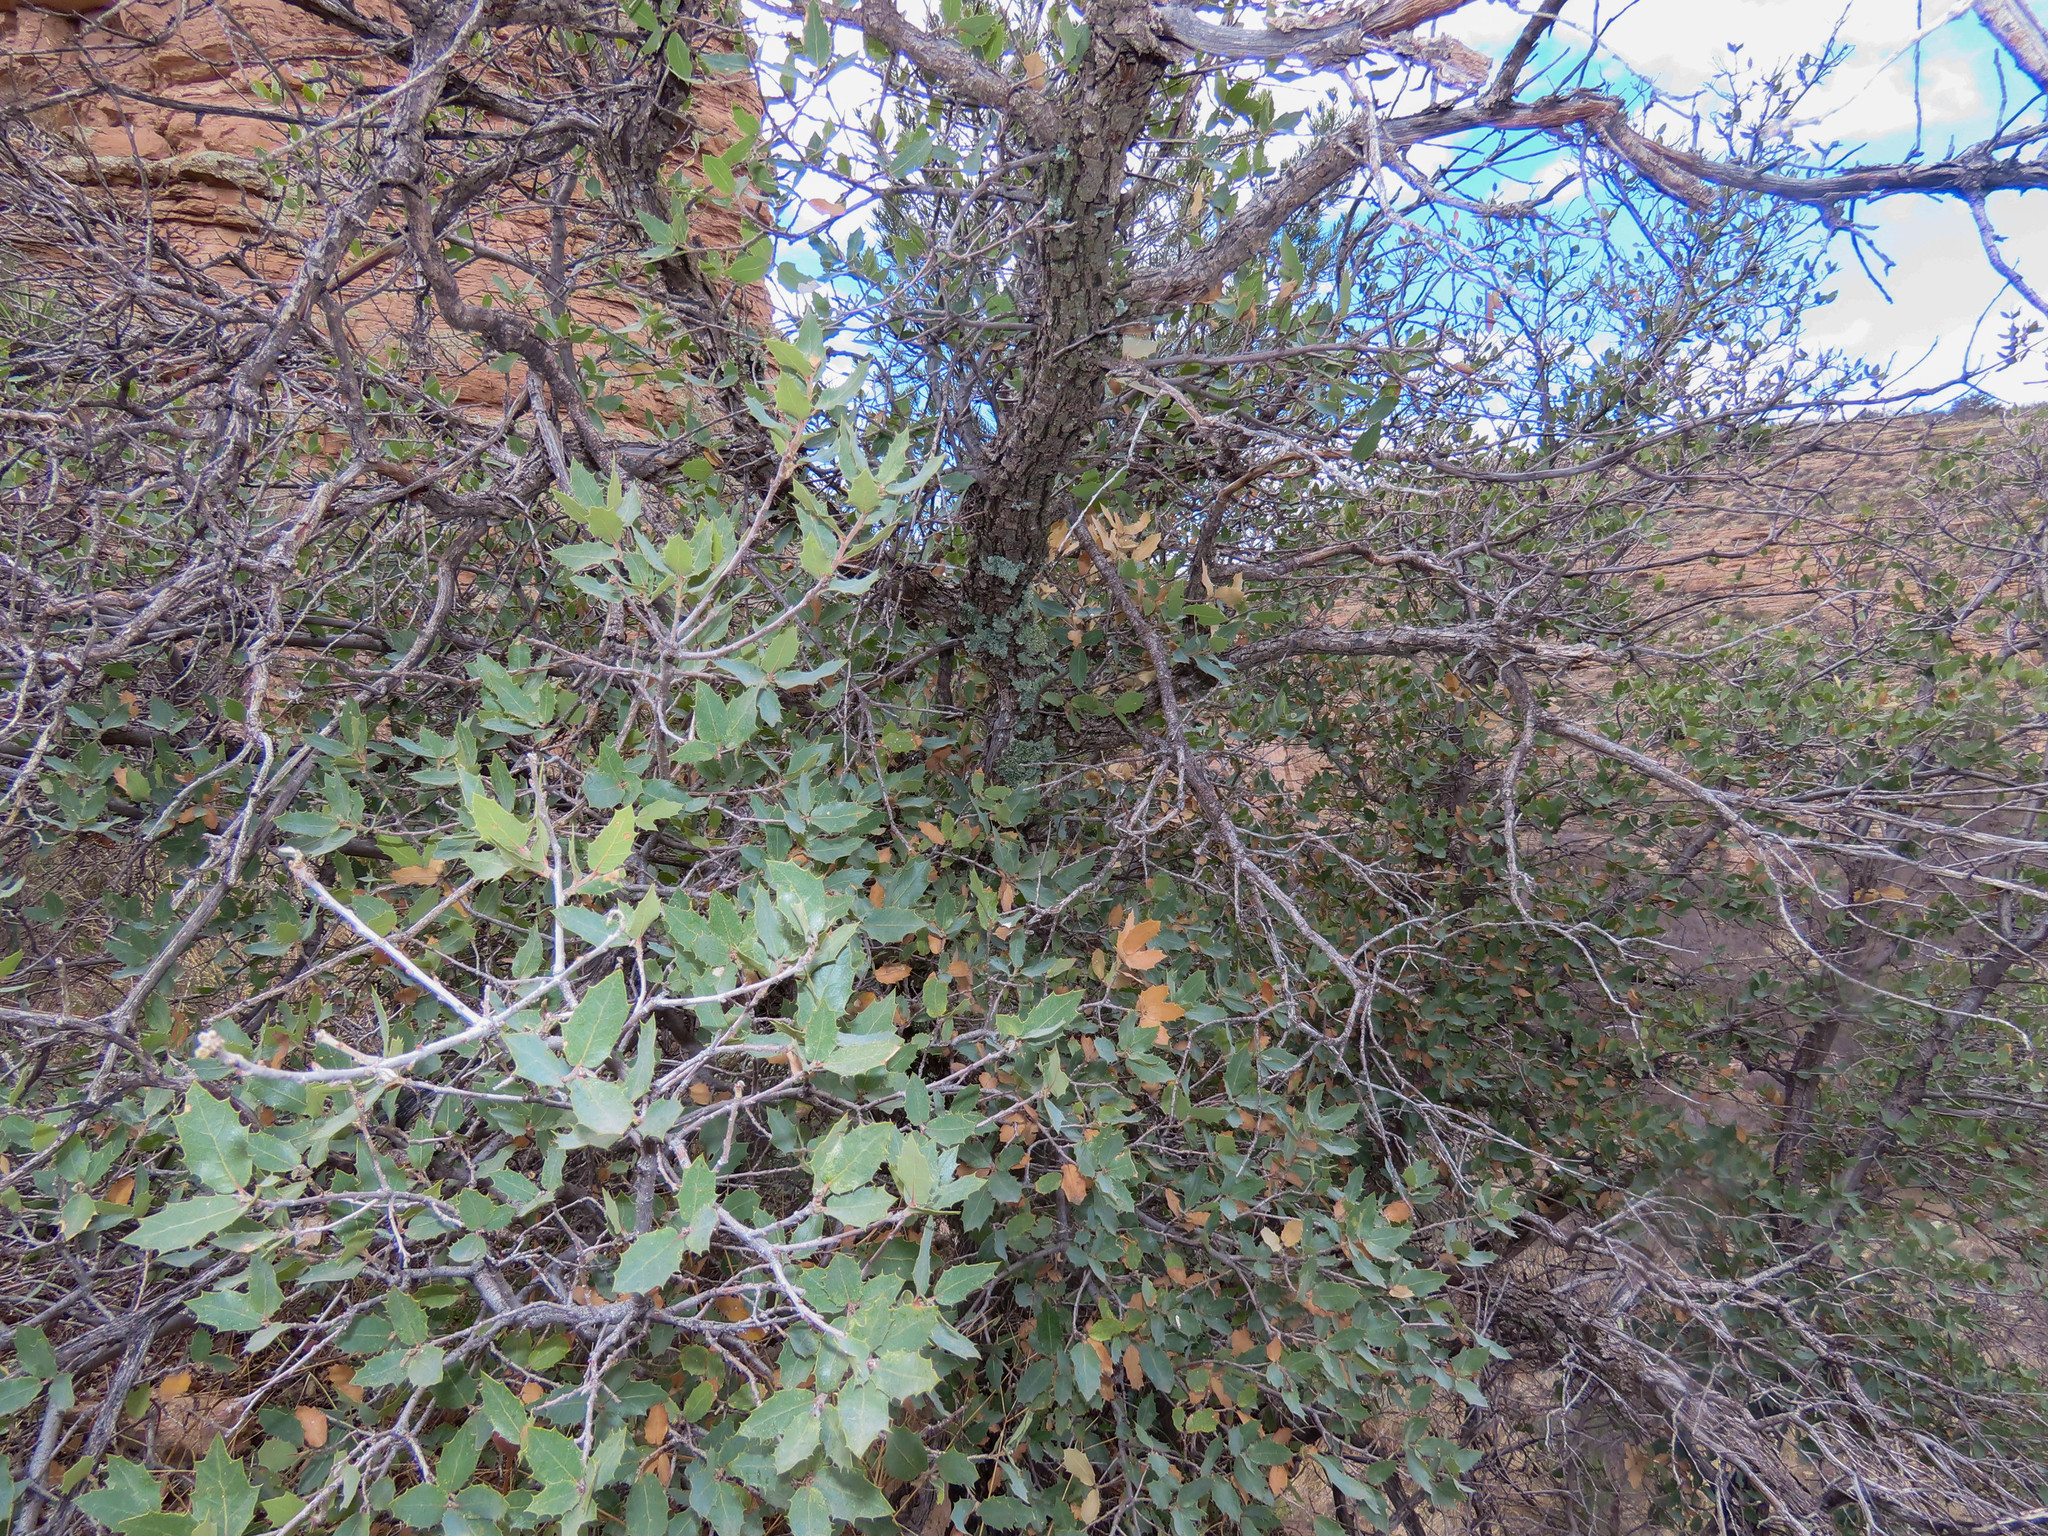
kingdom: Plantae
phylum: Tracheophyta
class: Magnoliopsida
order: Fagales
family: Fagaceae
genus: Quercus
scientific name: Quercus turbinella
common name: Sonoran scrub oak
